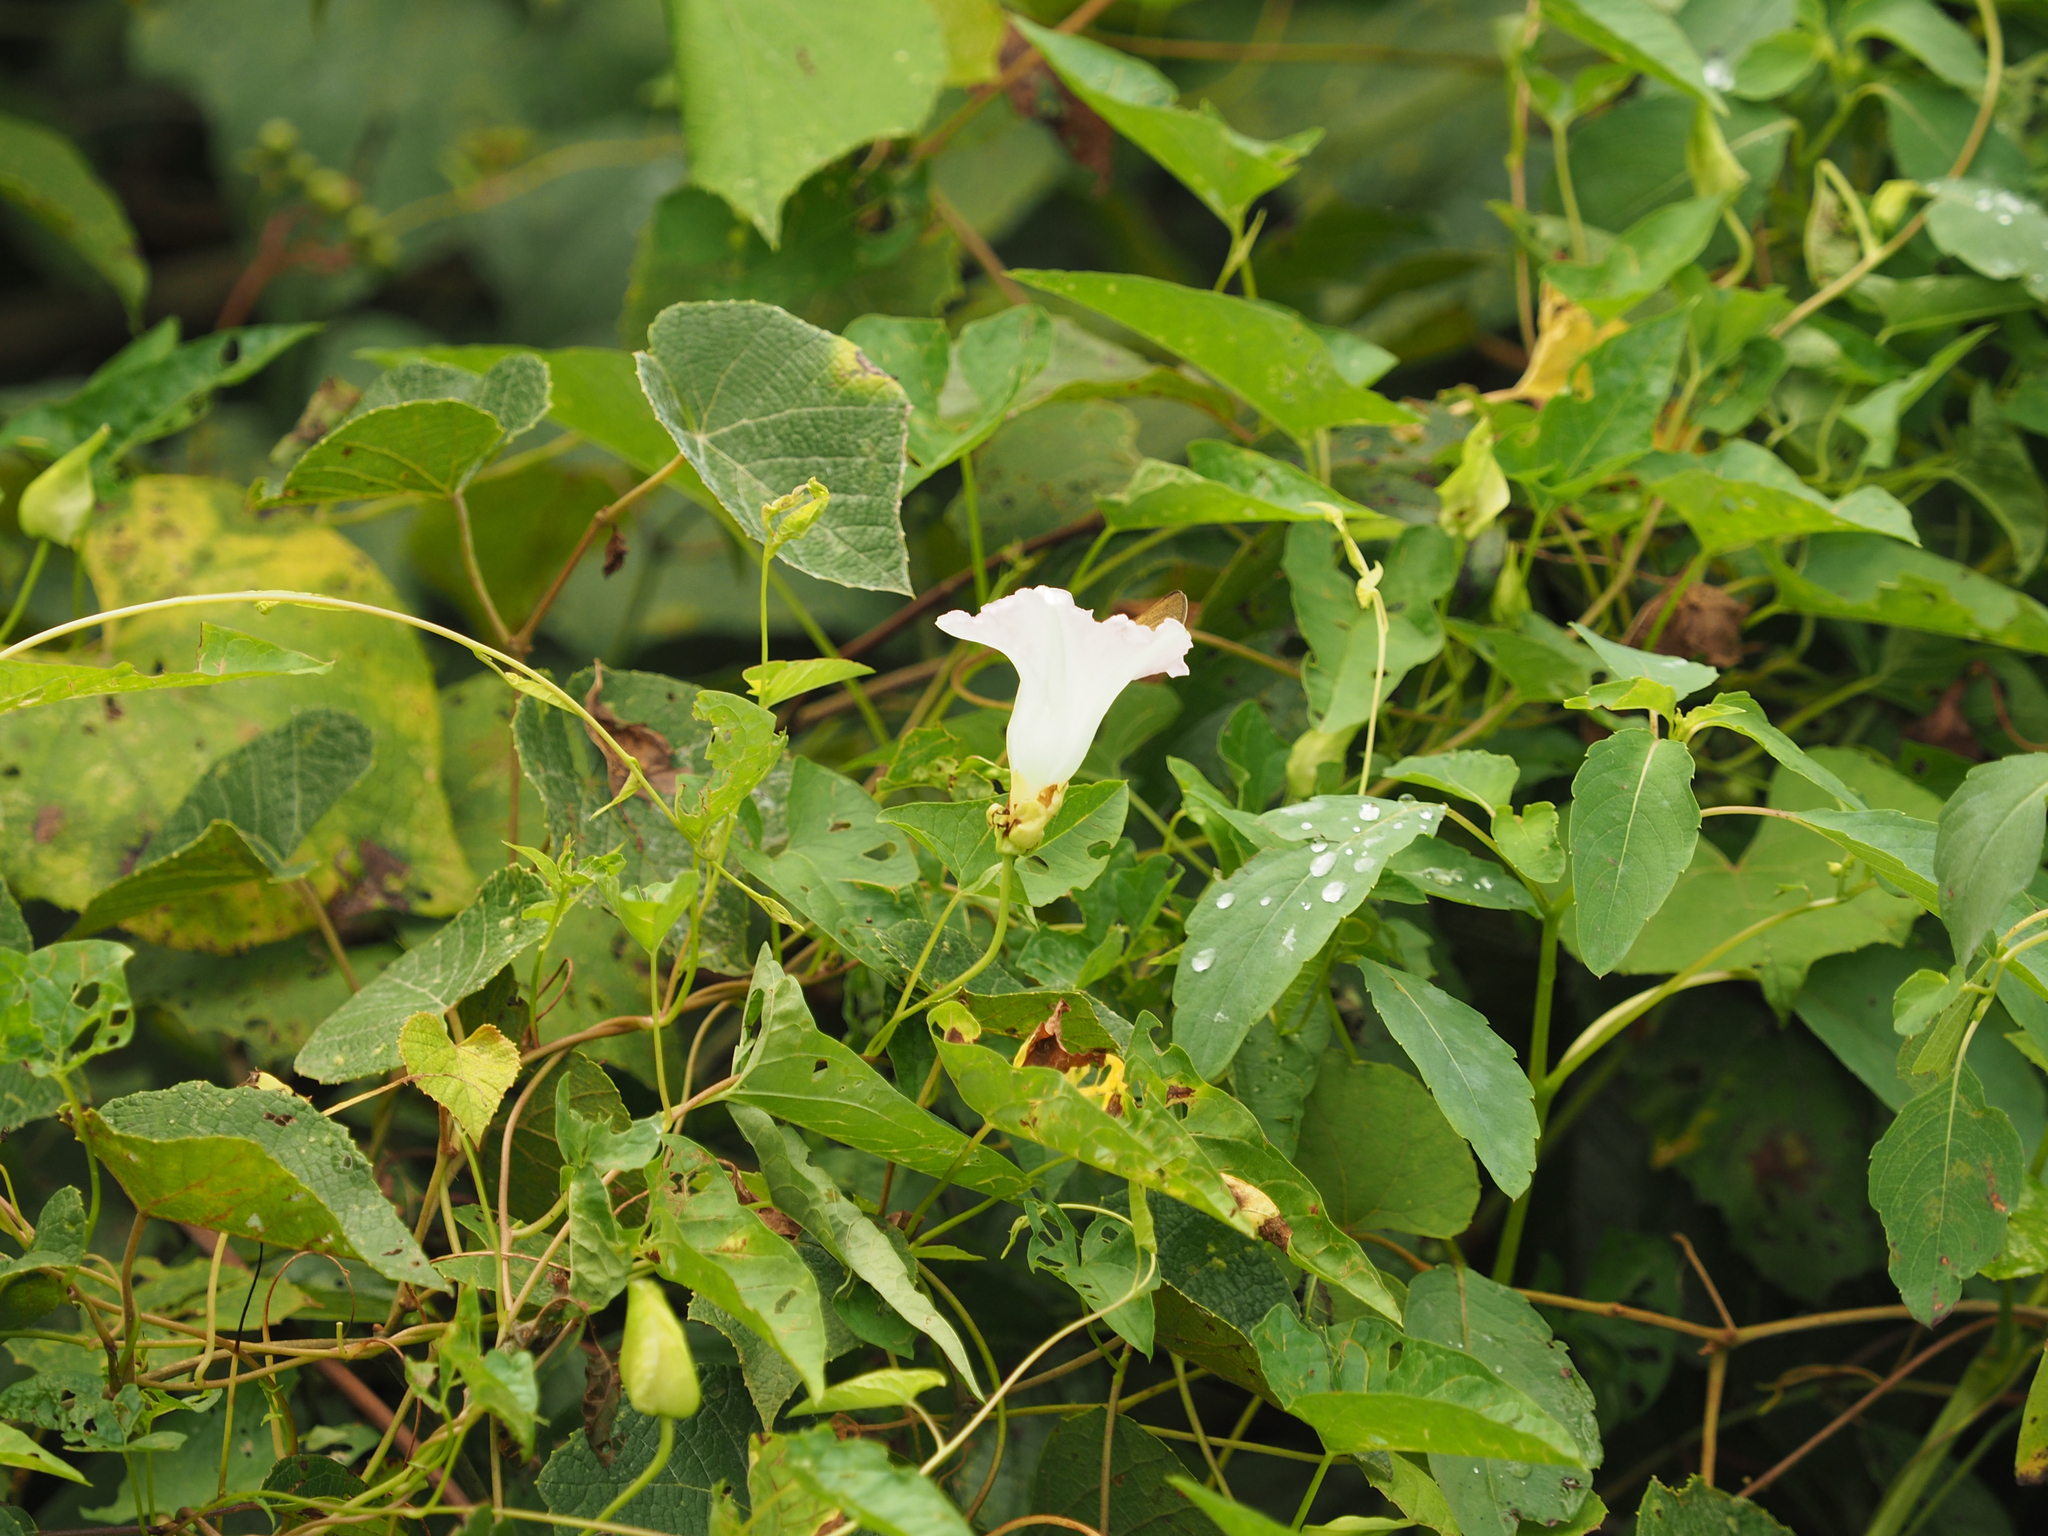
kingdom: Plantae
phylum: Tracheophyta
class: Magnoliopsida
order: Solanales
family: Convolvulaceae
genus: Calystegia
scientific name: Calystegia sepium
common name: Hedge bindweed
